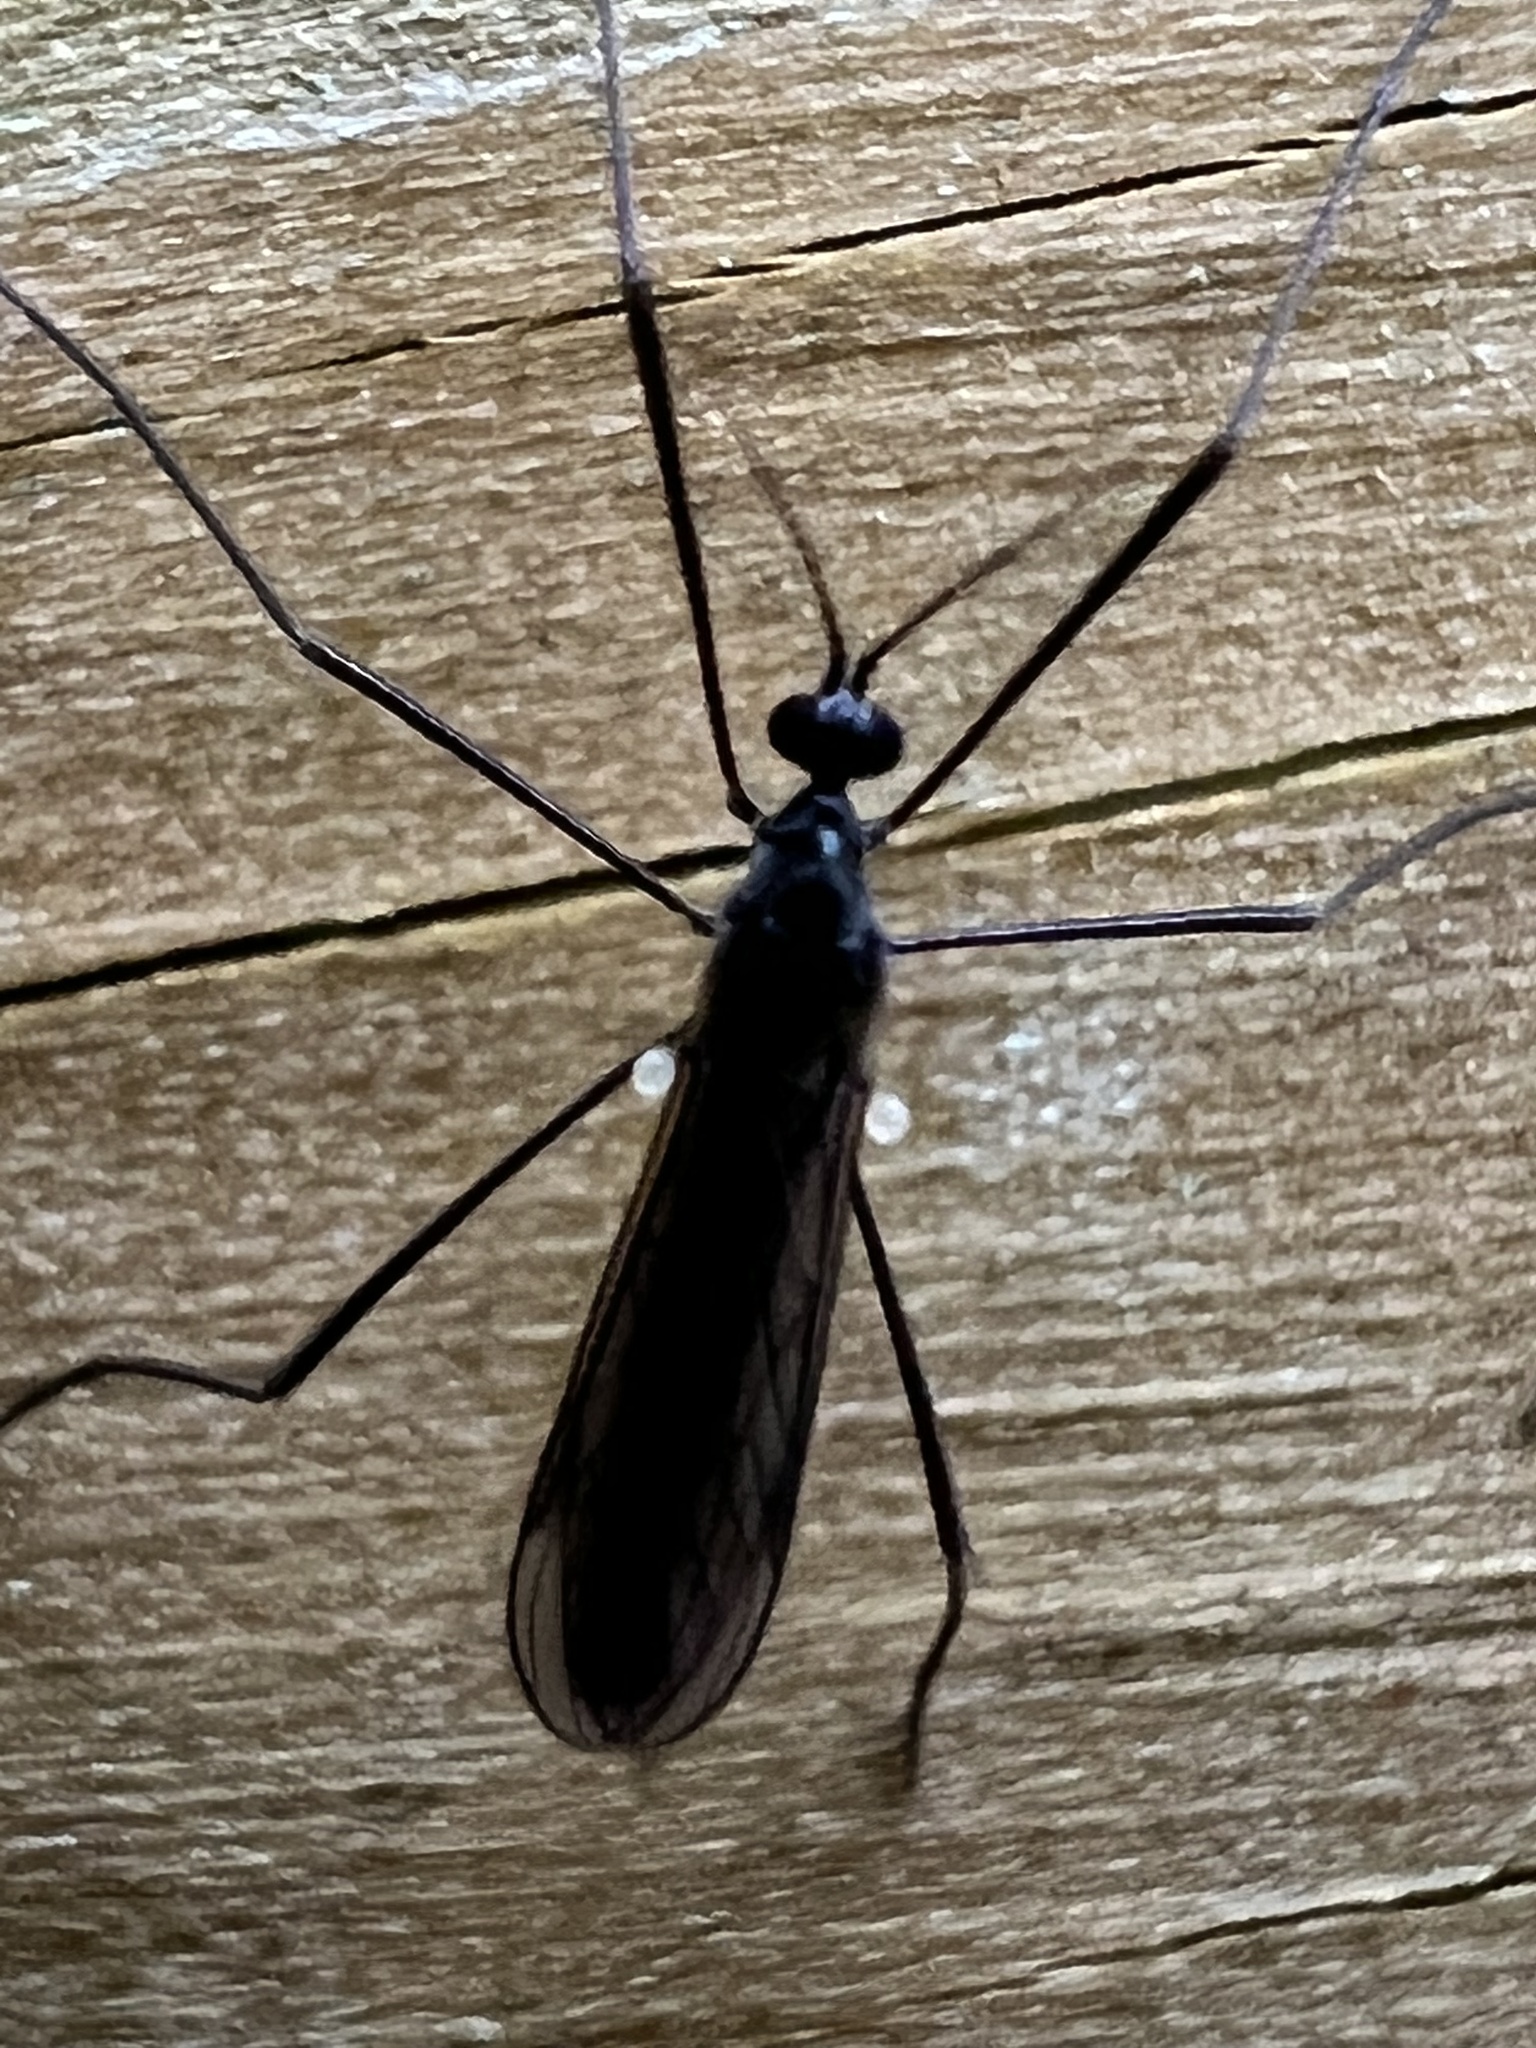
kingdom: Animalia
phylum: Arthropoda
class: Insecta
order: Diptera
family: Limoniidae
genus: Gnophomyia
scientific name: Gnophomyia tristissima
